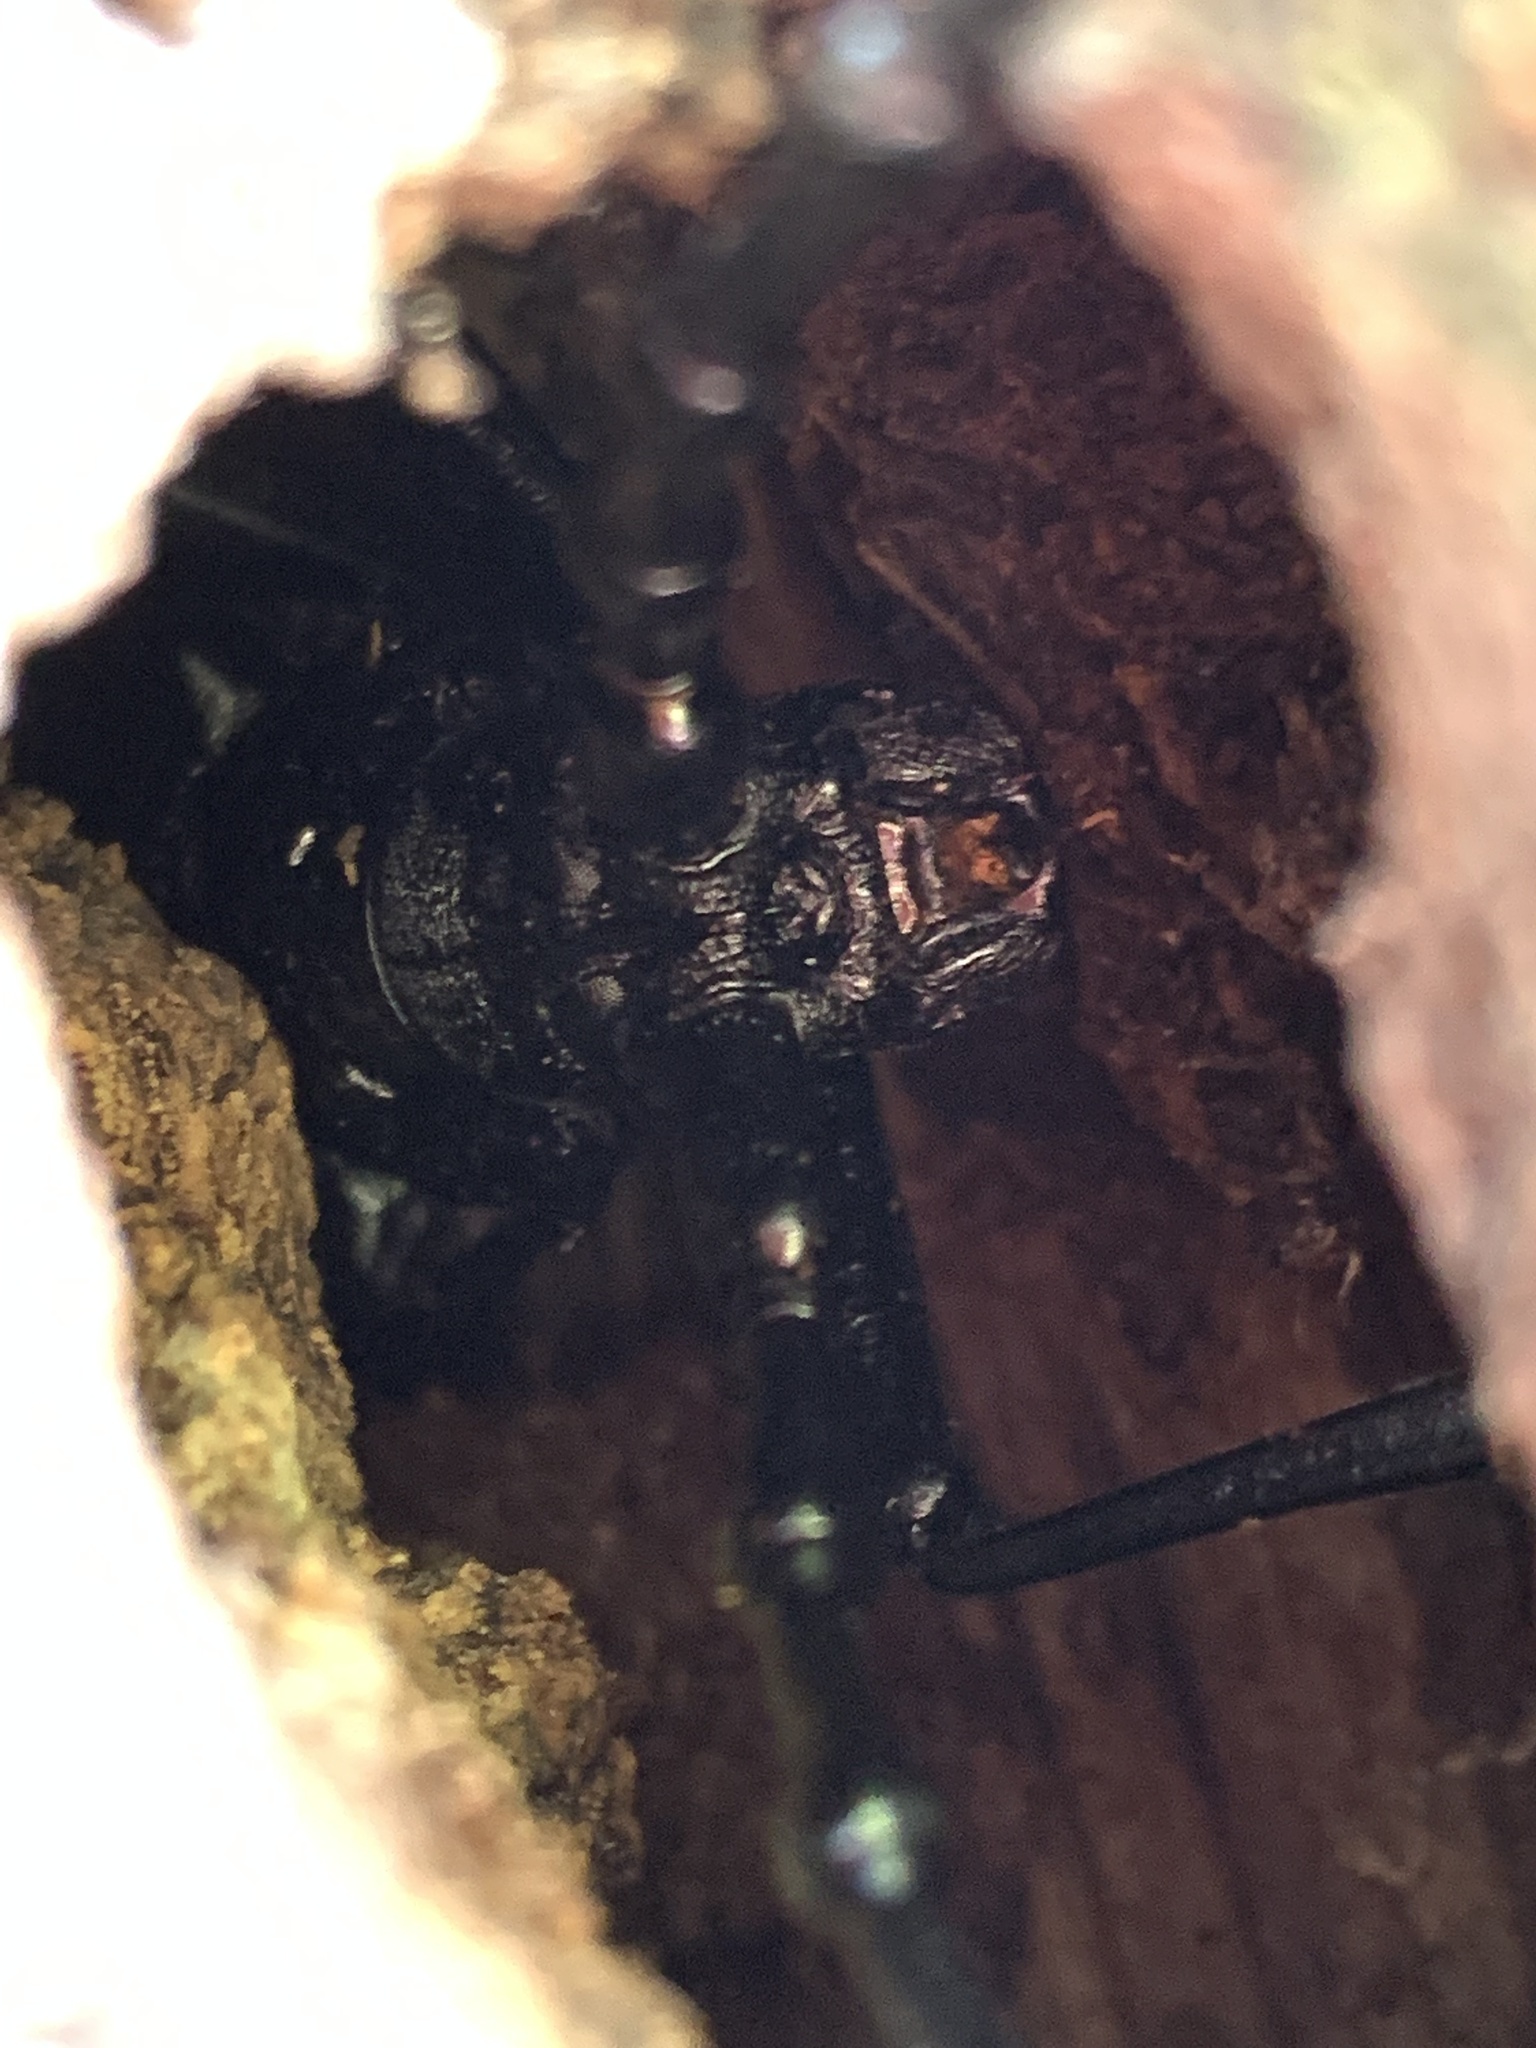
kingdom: Animalia
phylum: Arthropoda
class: Insecta
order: Coleoptera
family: Cerambycidae
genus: Cerambyx
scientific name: Cerambyx cerdo
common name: Cerambyx longicorn
